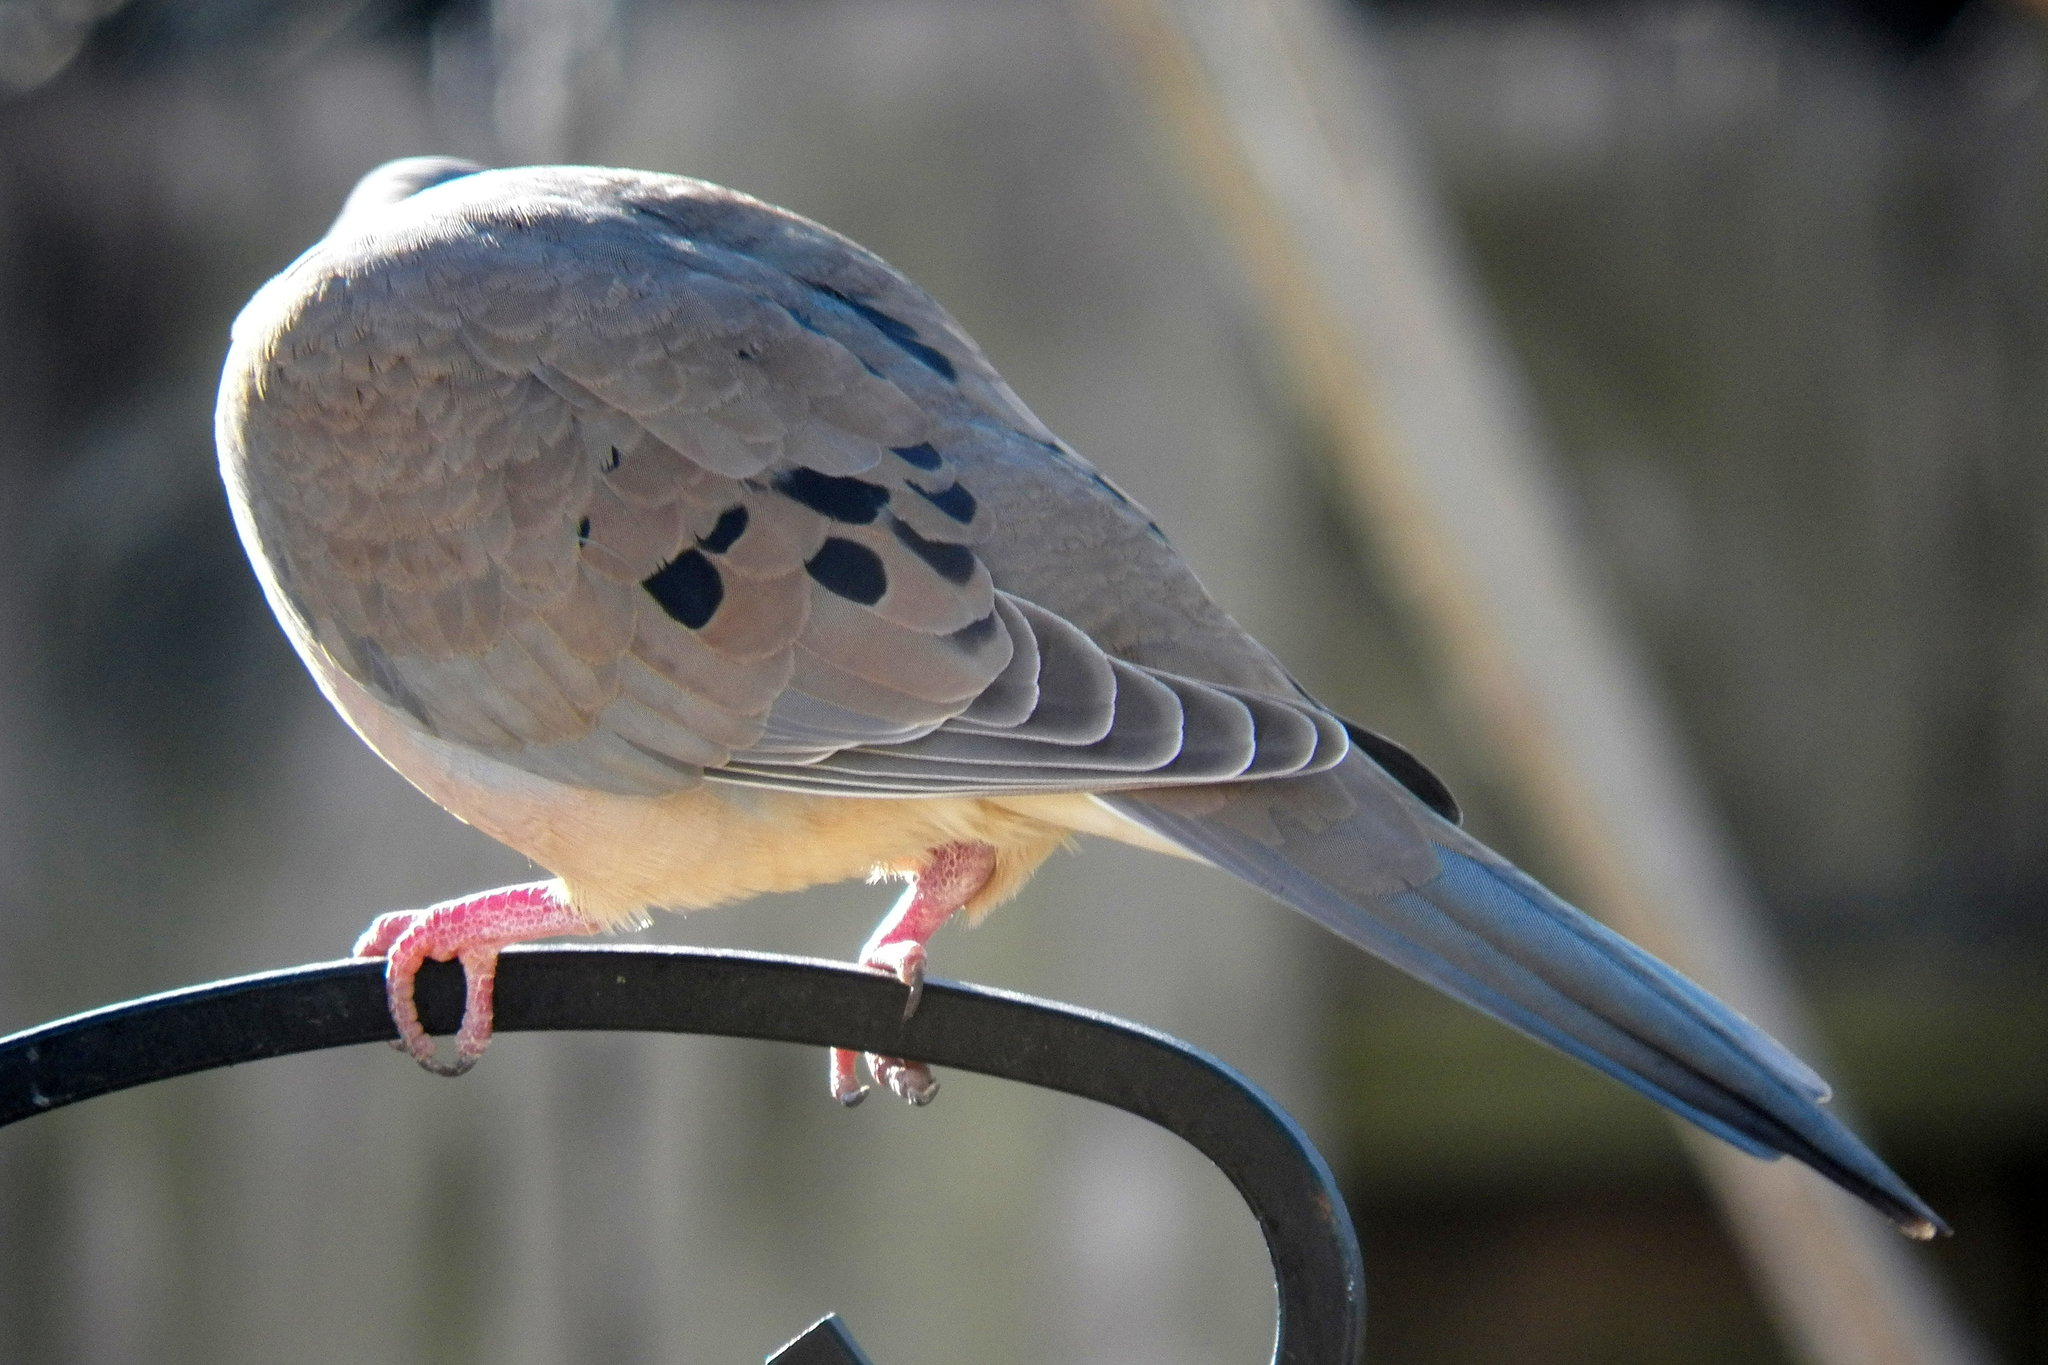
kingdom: Animalia
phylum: Chordata
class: Aves
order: Columbiformes
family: Columbidae
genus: Zenaida
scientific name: Zenaida macroura
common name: Mourning dove
